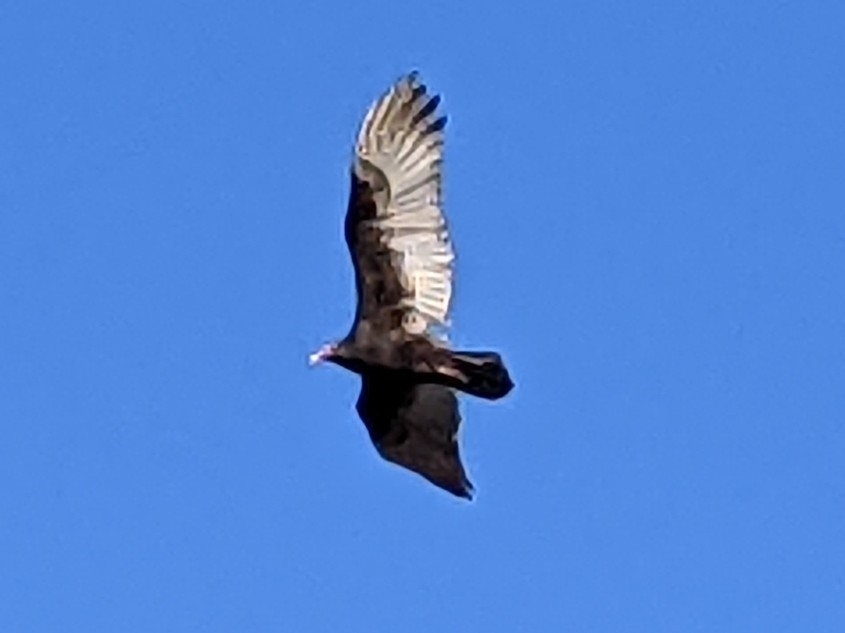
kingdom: Animalia
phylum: Chordata
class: Aves
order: Accipitriformes
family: Cathartidae
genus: Cathartes
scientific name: Cathartes aura
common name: Turkey vulture
